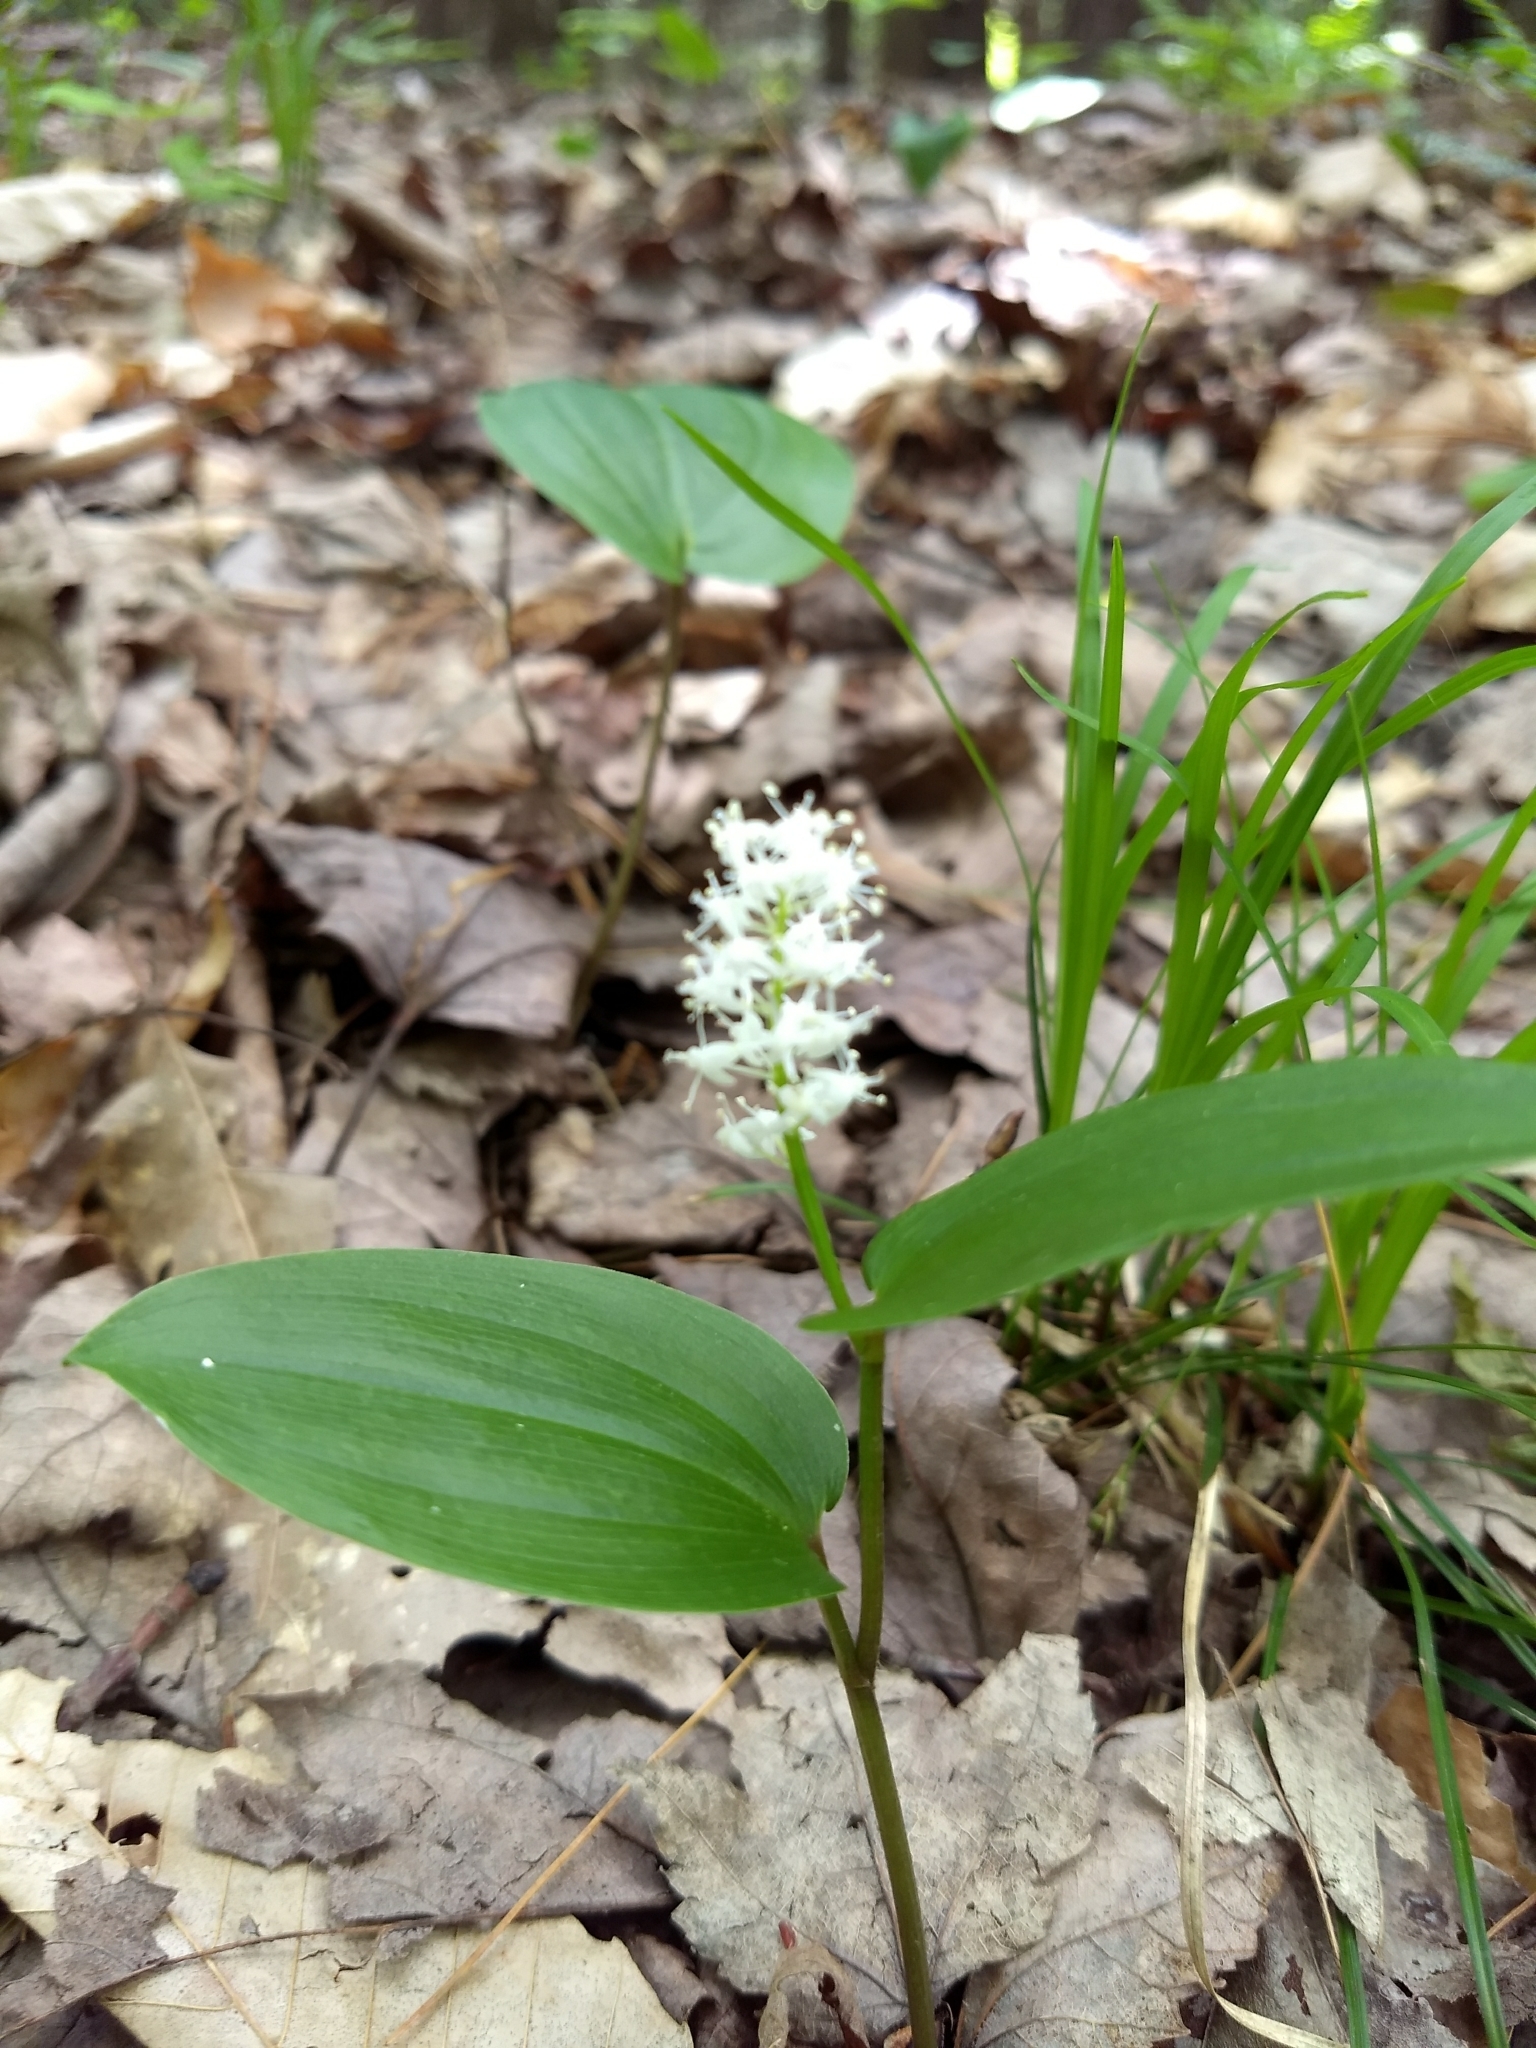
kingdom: Plantae
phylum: Tracheophyta
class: Liliopsida
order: Asparagales
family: Asparagaceae
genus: Maianthemum
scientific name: Maianthemum canadense
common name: False lily-of-the-valley
